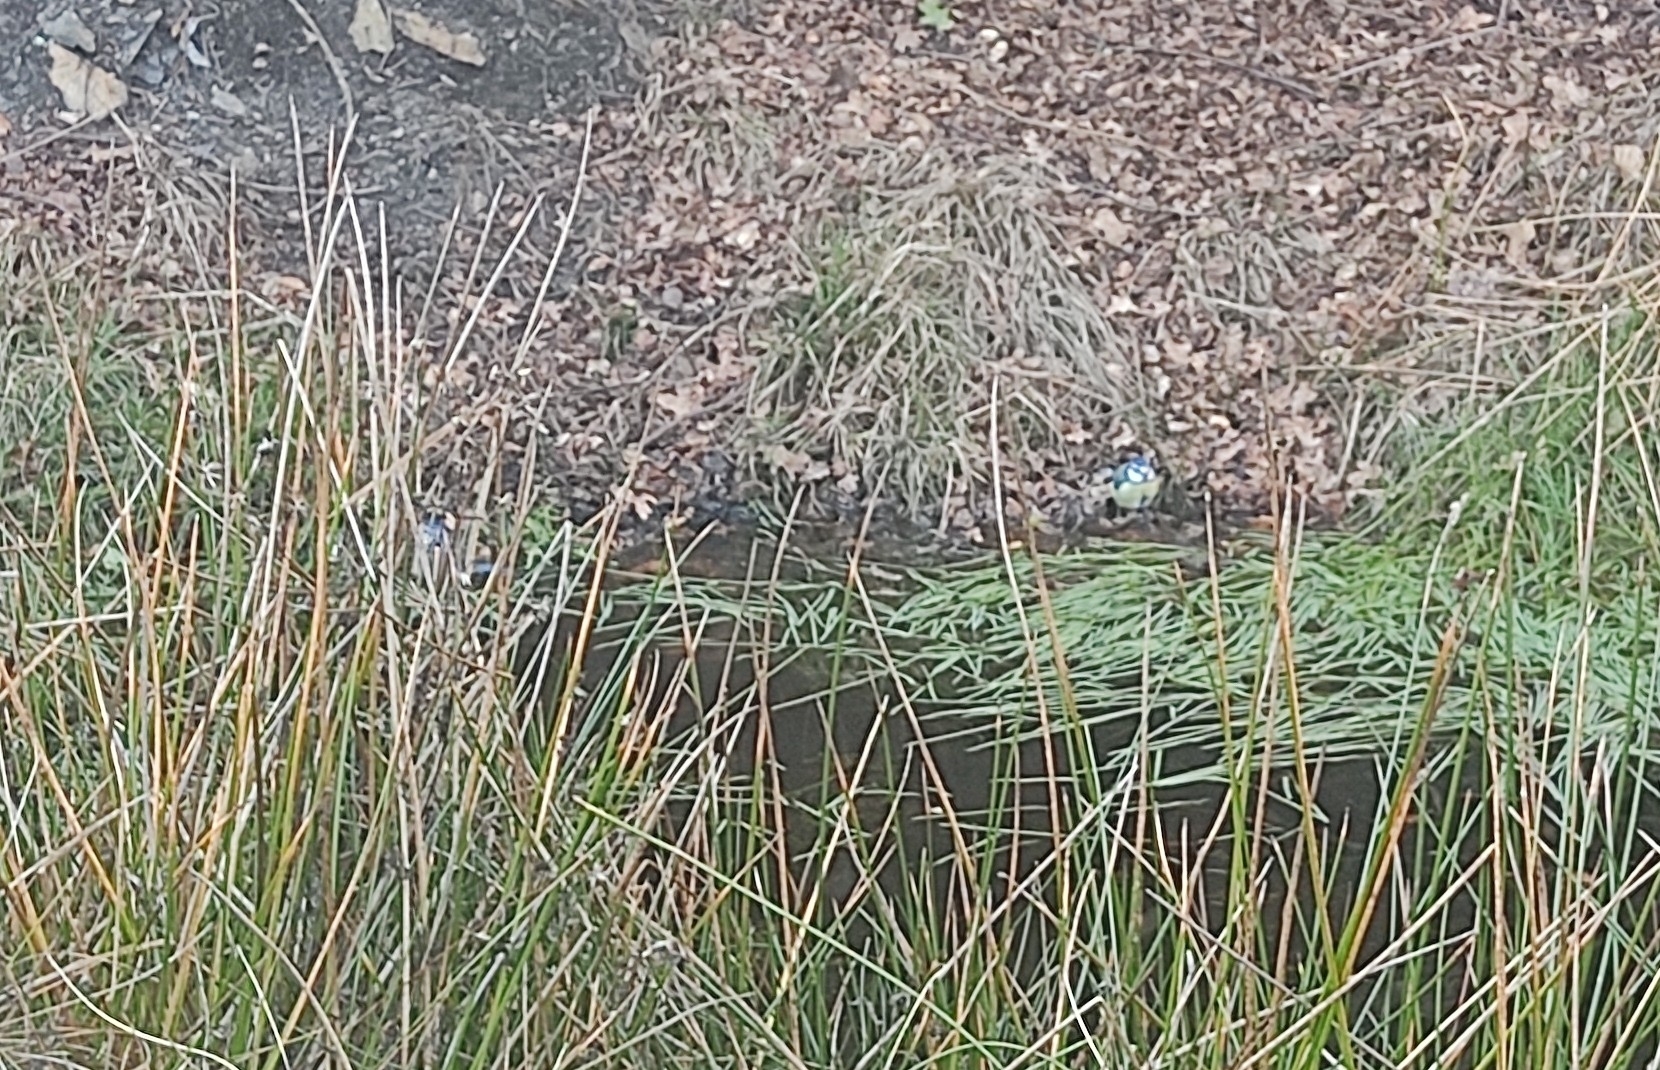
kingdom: Animalia
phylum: Chordata
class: Aves
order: Passeriformes
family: Paridae
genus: Cyanistes
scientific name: Cyanistes caeruleus
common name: Eurasian blue tit
